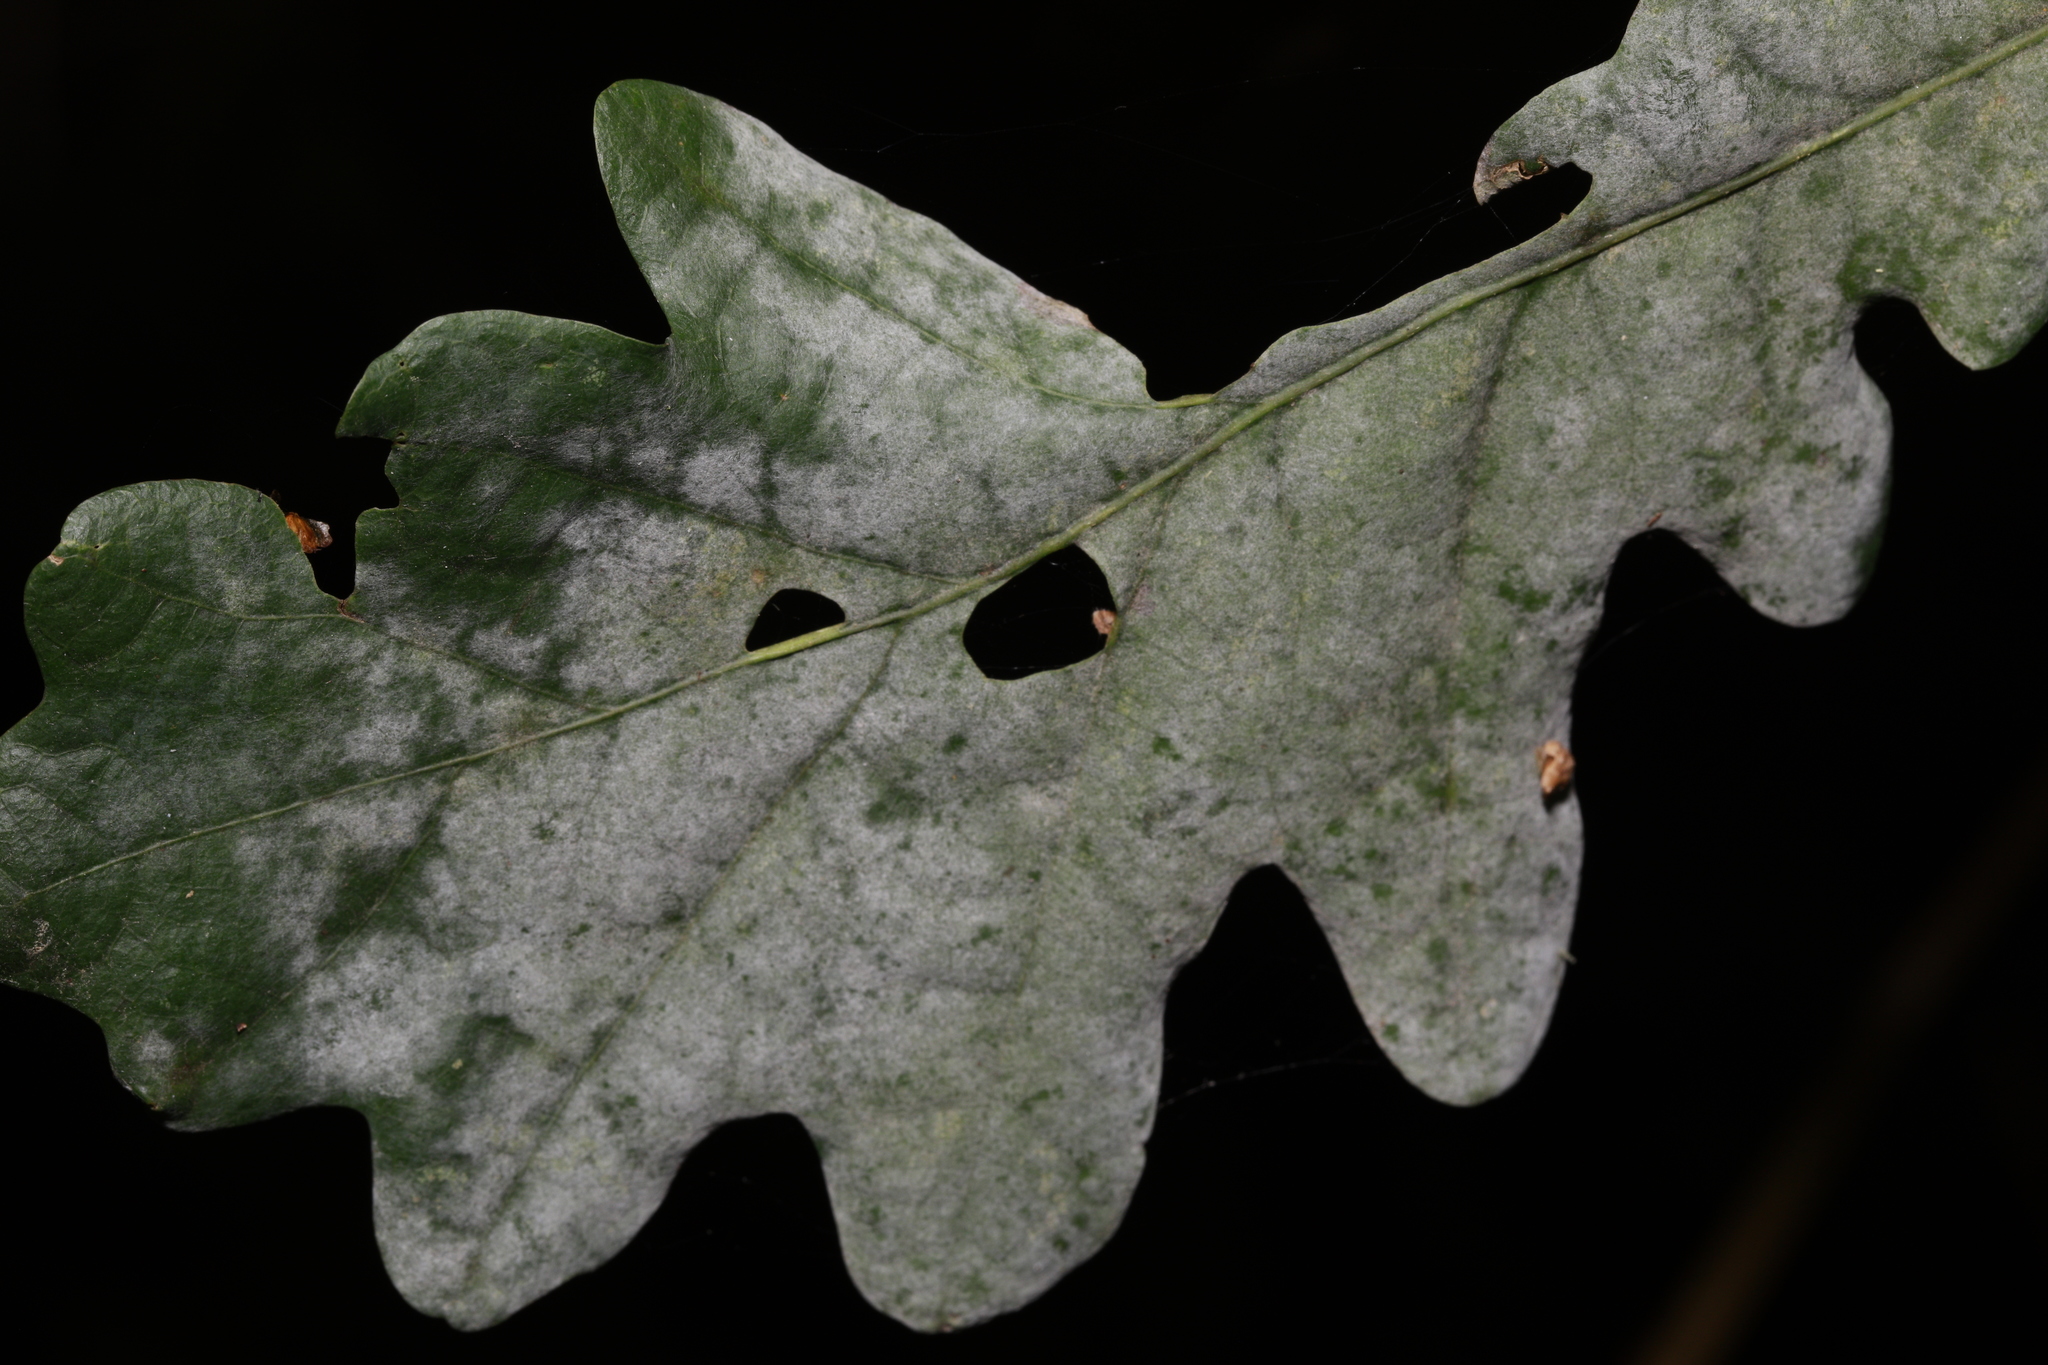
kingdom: Fungi
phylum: Ascomycota
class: Leotiomycetes
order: Helotiales
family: Erysiphaceae
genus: Erysiphe
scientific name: Erysiphe alphitoides
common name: Oak mildew
